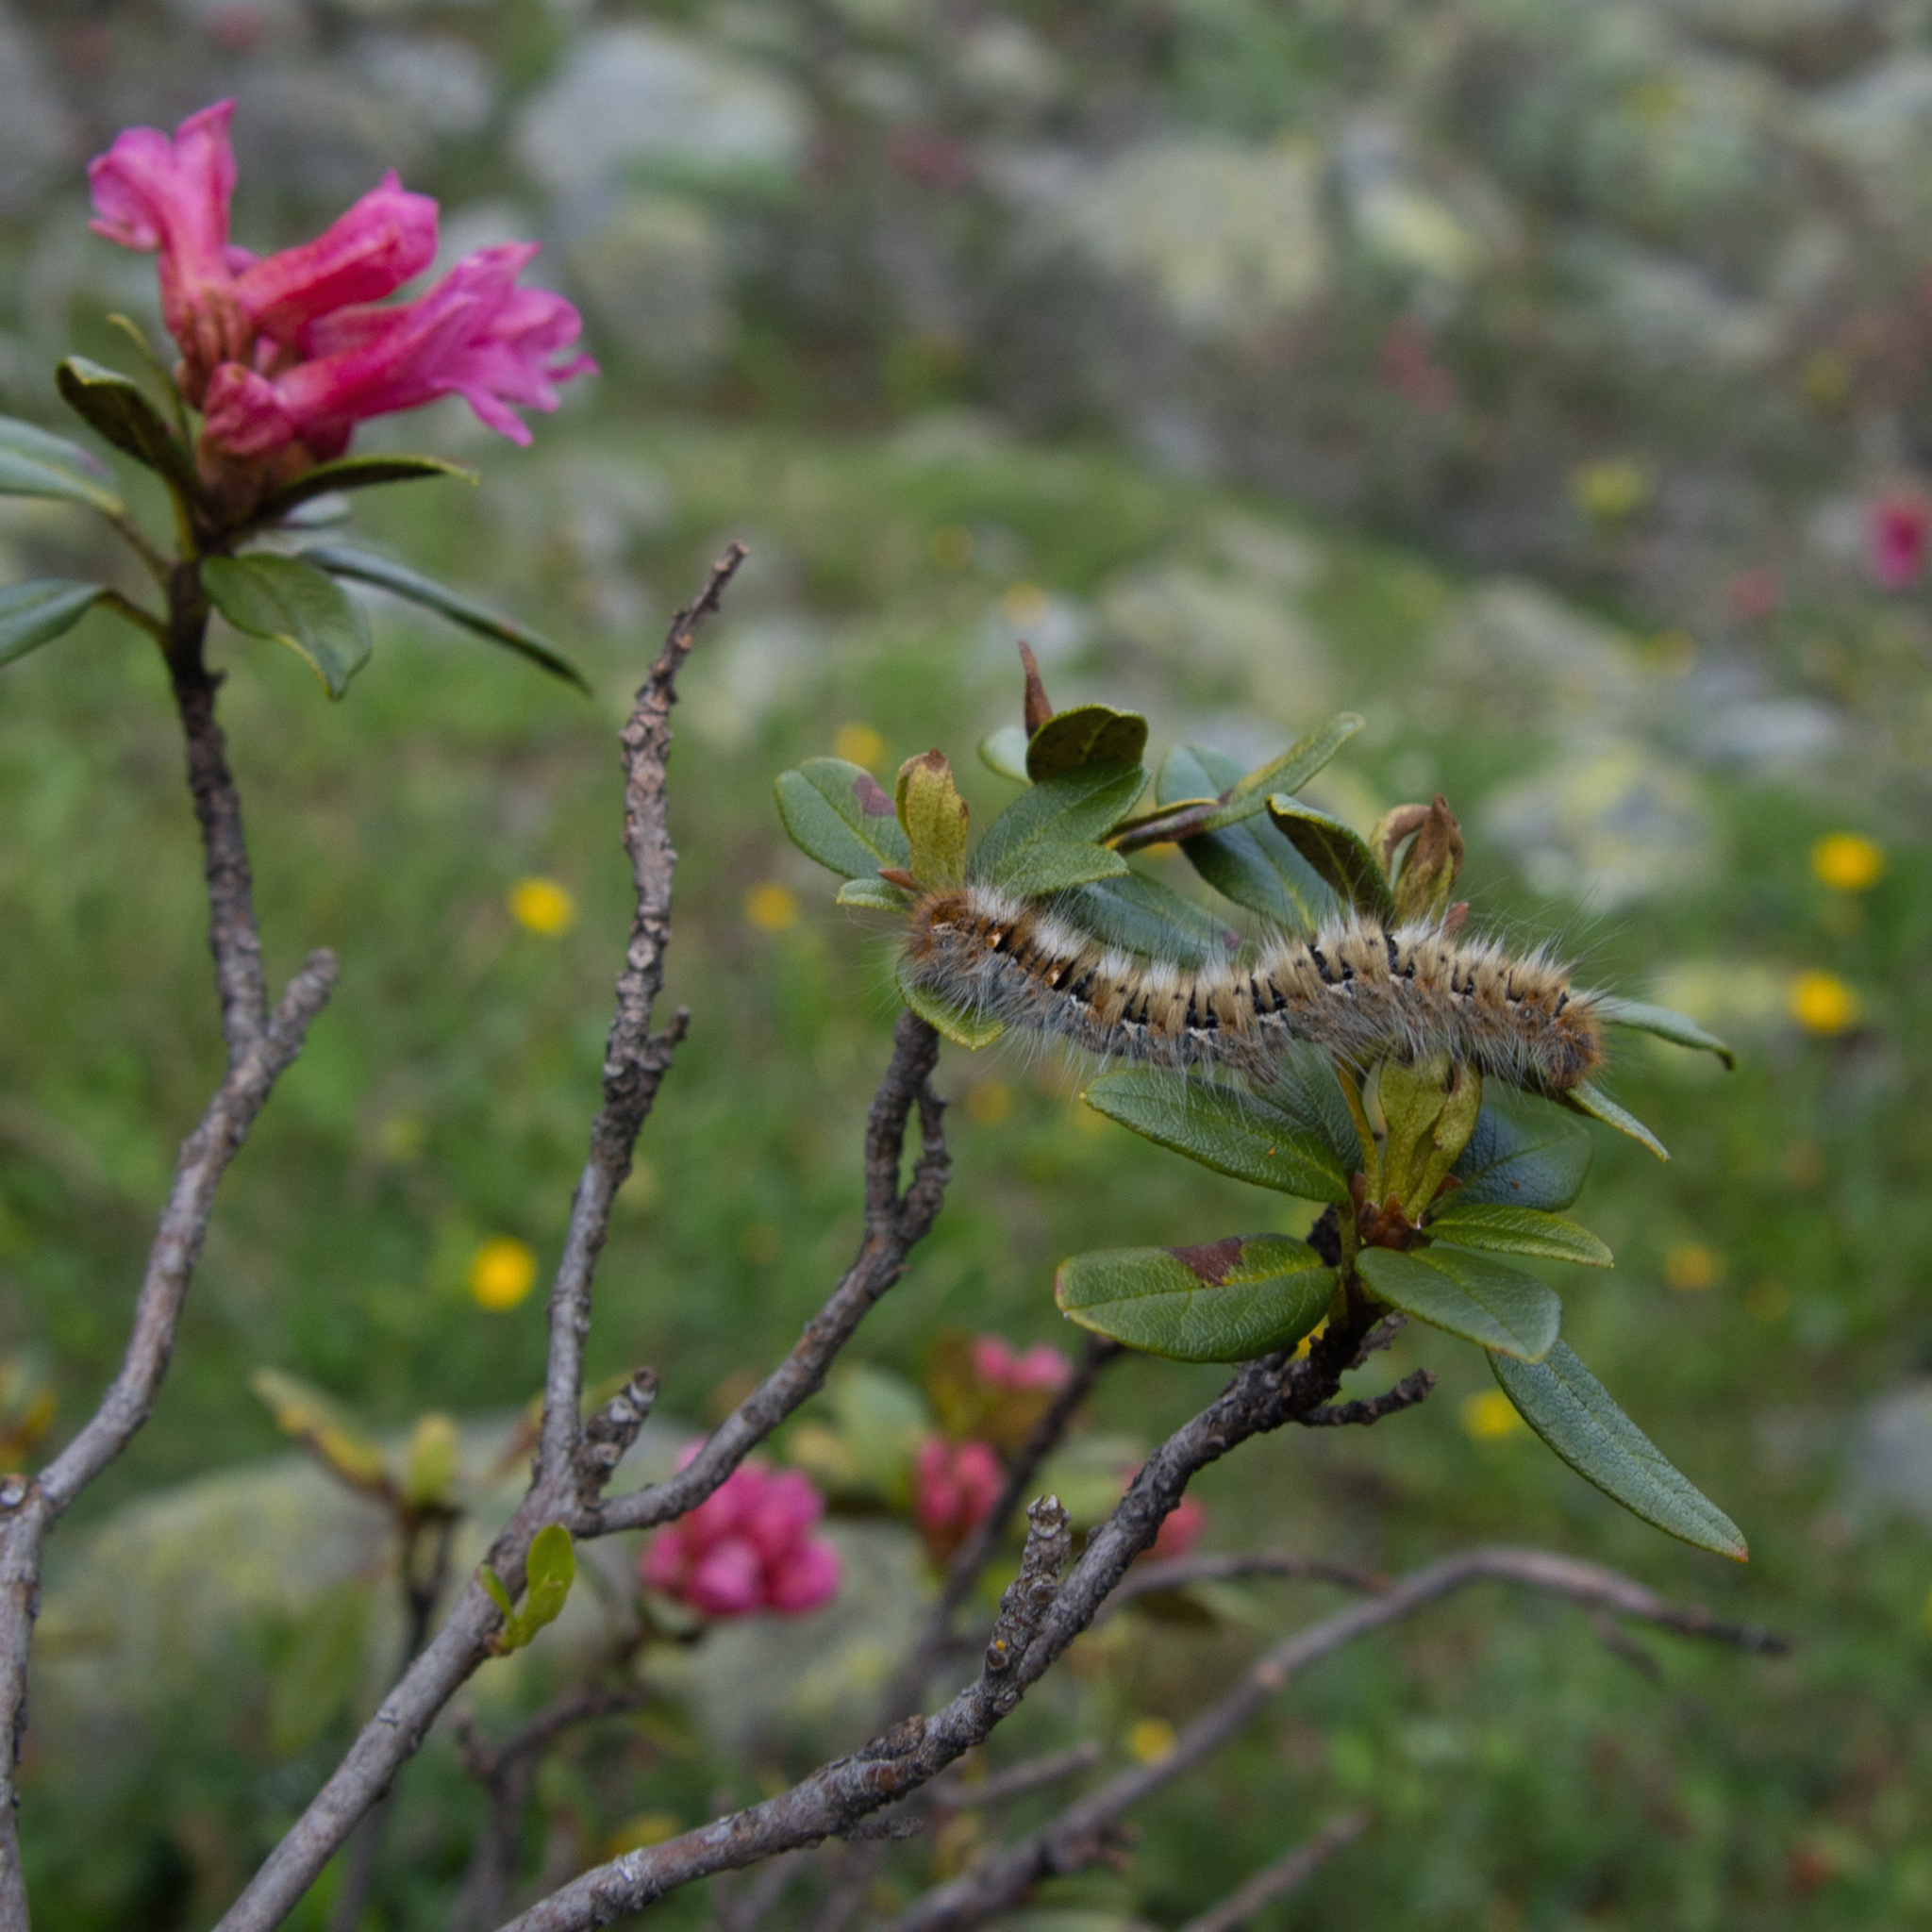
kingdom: Animalia
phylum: Arthropoda
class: Insecta
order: Lepidoptera
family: Lasiocampidae
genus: Lasiocampa
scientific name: Lasiocampa quercus
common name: Oak eggar
